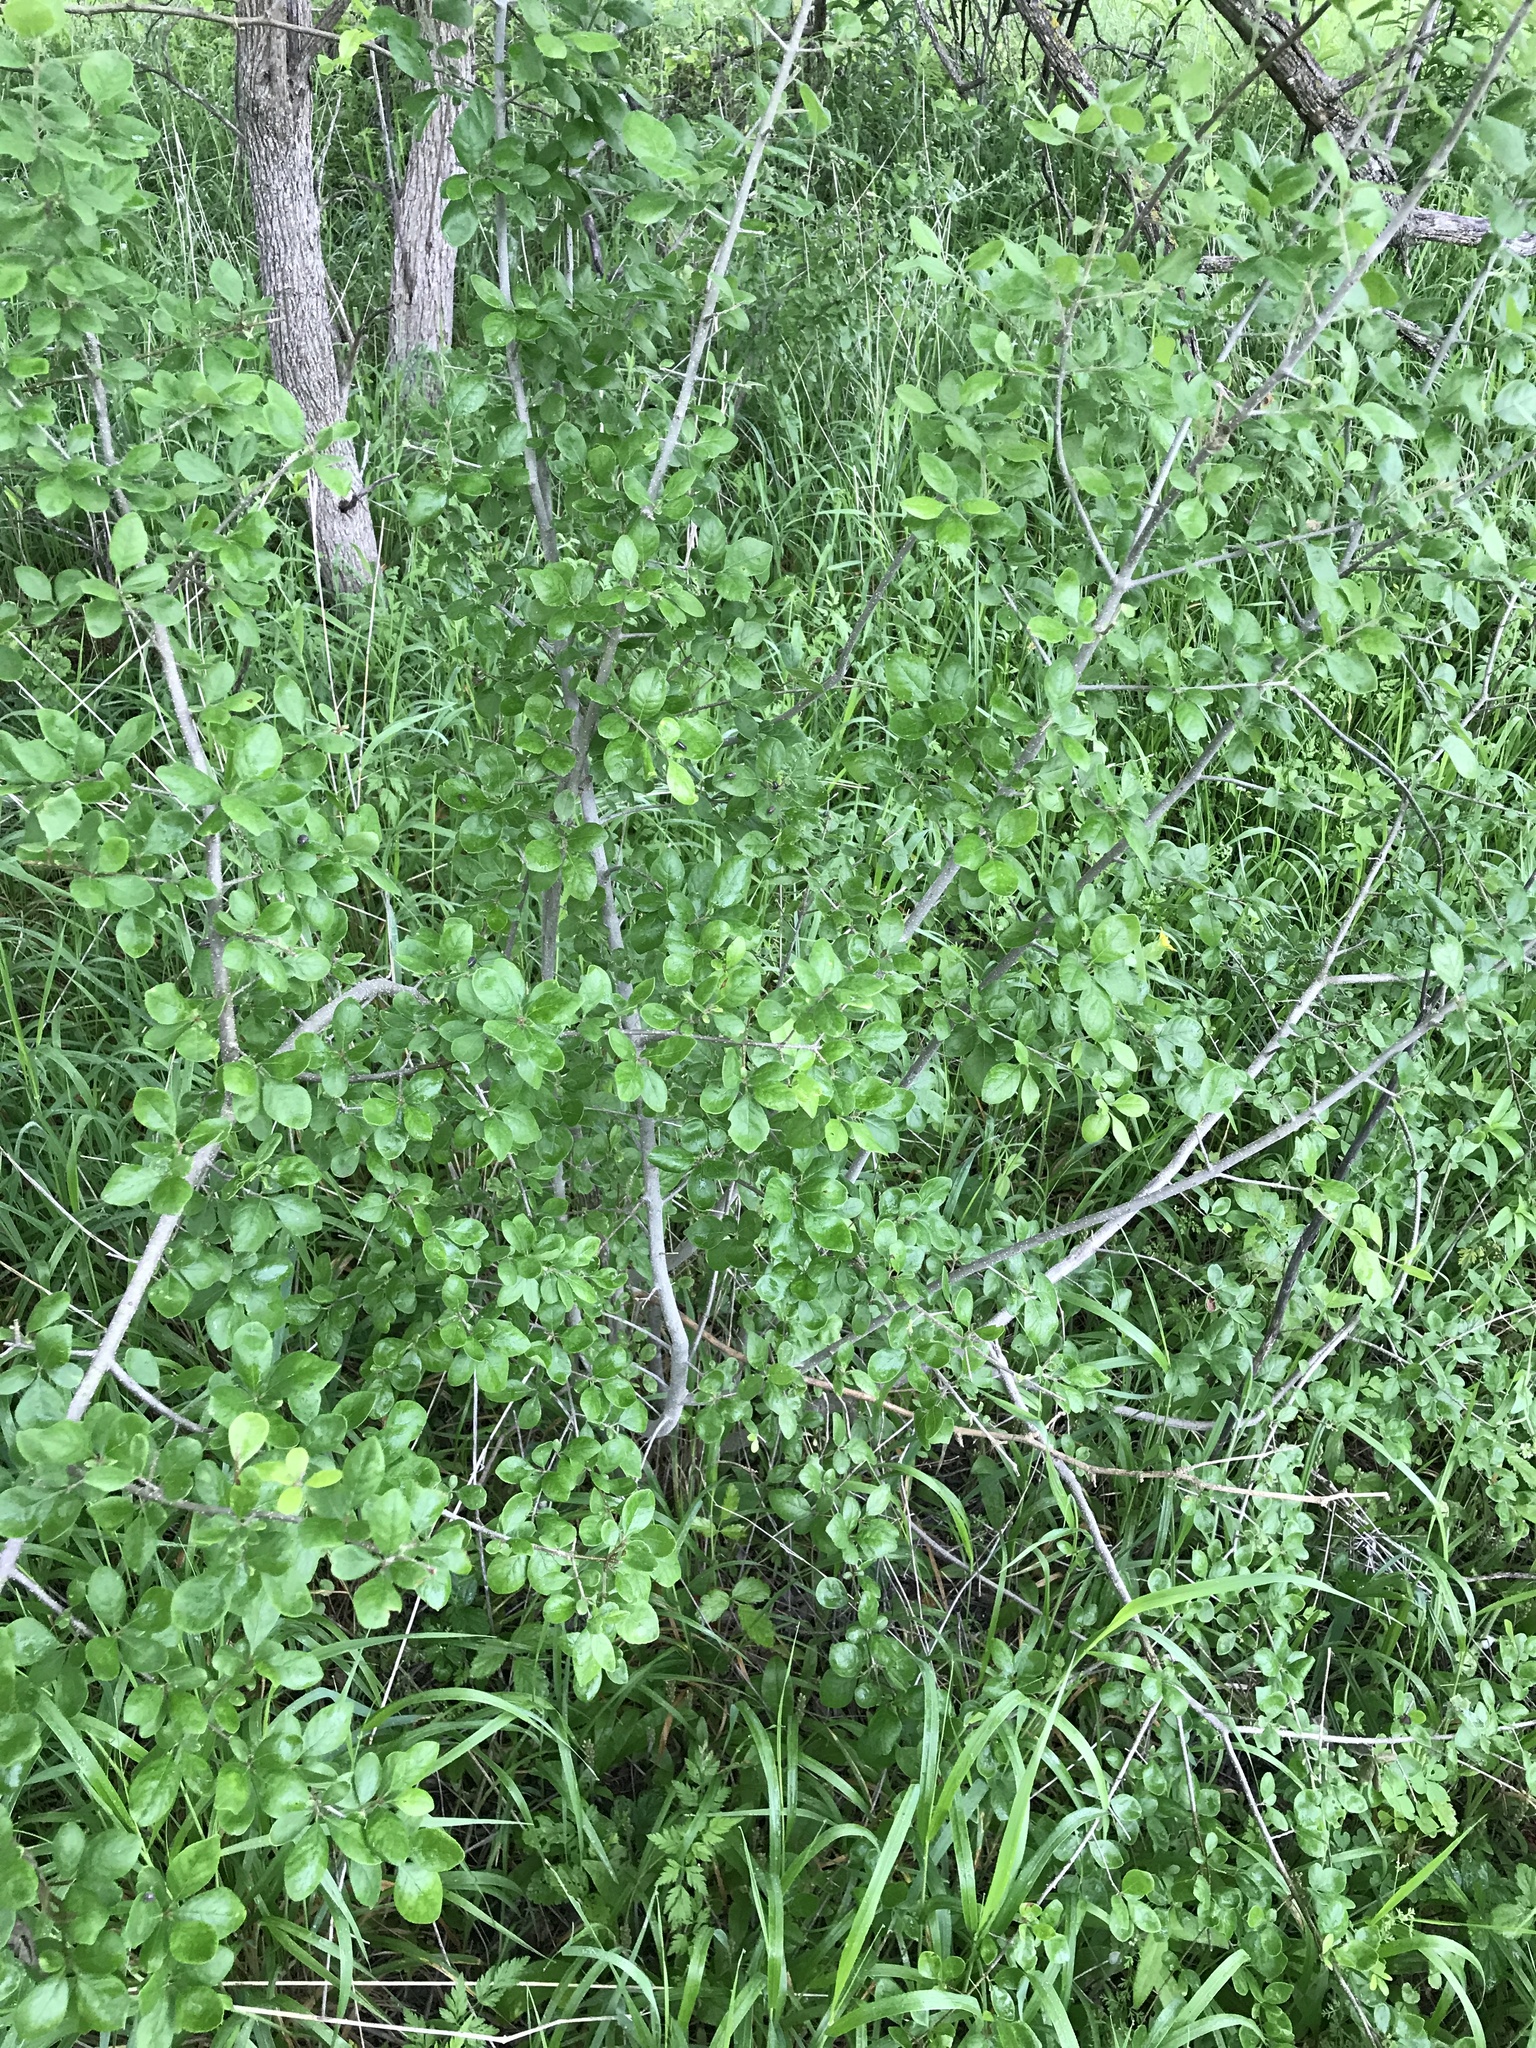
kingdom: Plantae
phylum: Tracheophyta
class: Magnoliopsida
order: Lamiales
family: Oleaceae
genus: Forestiera
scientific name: Forestiera pubescens
